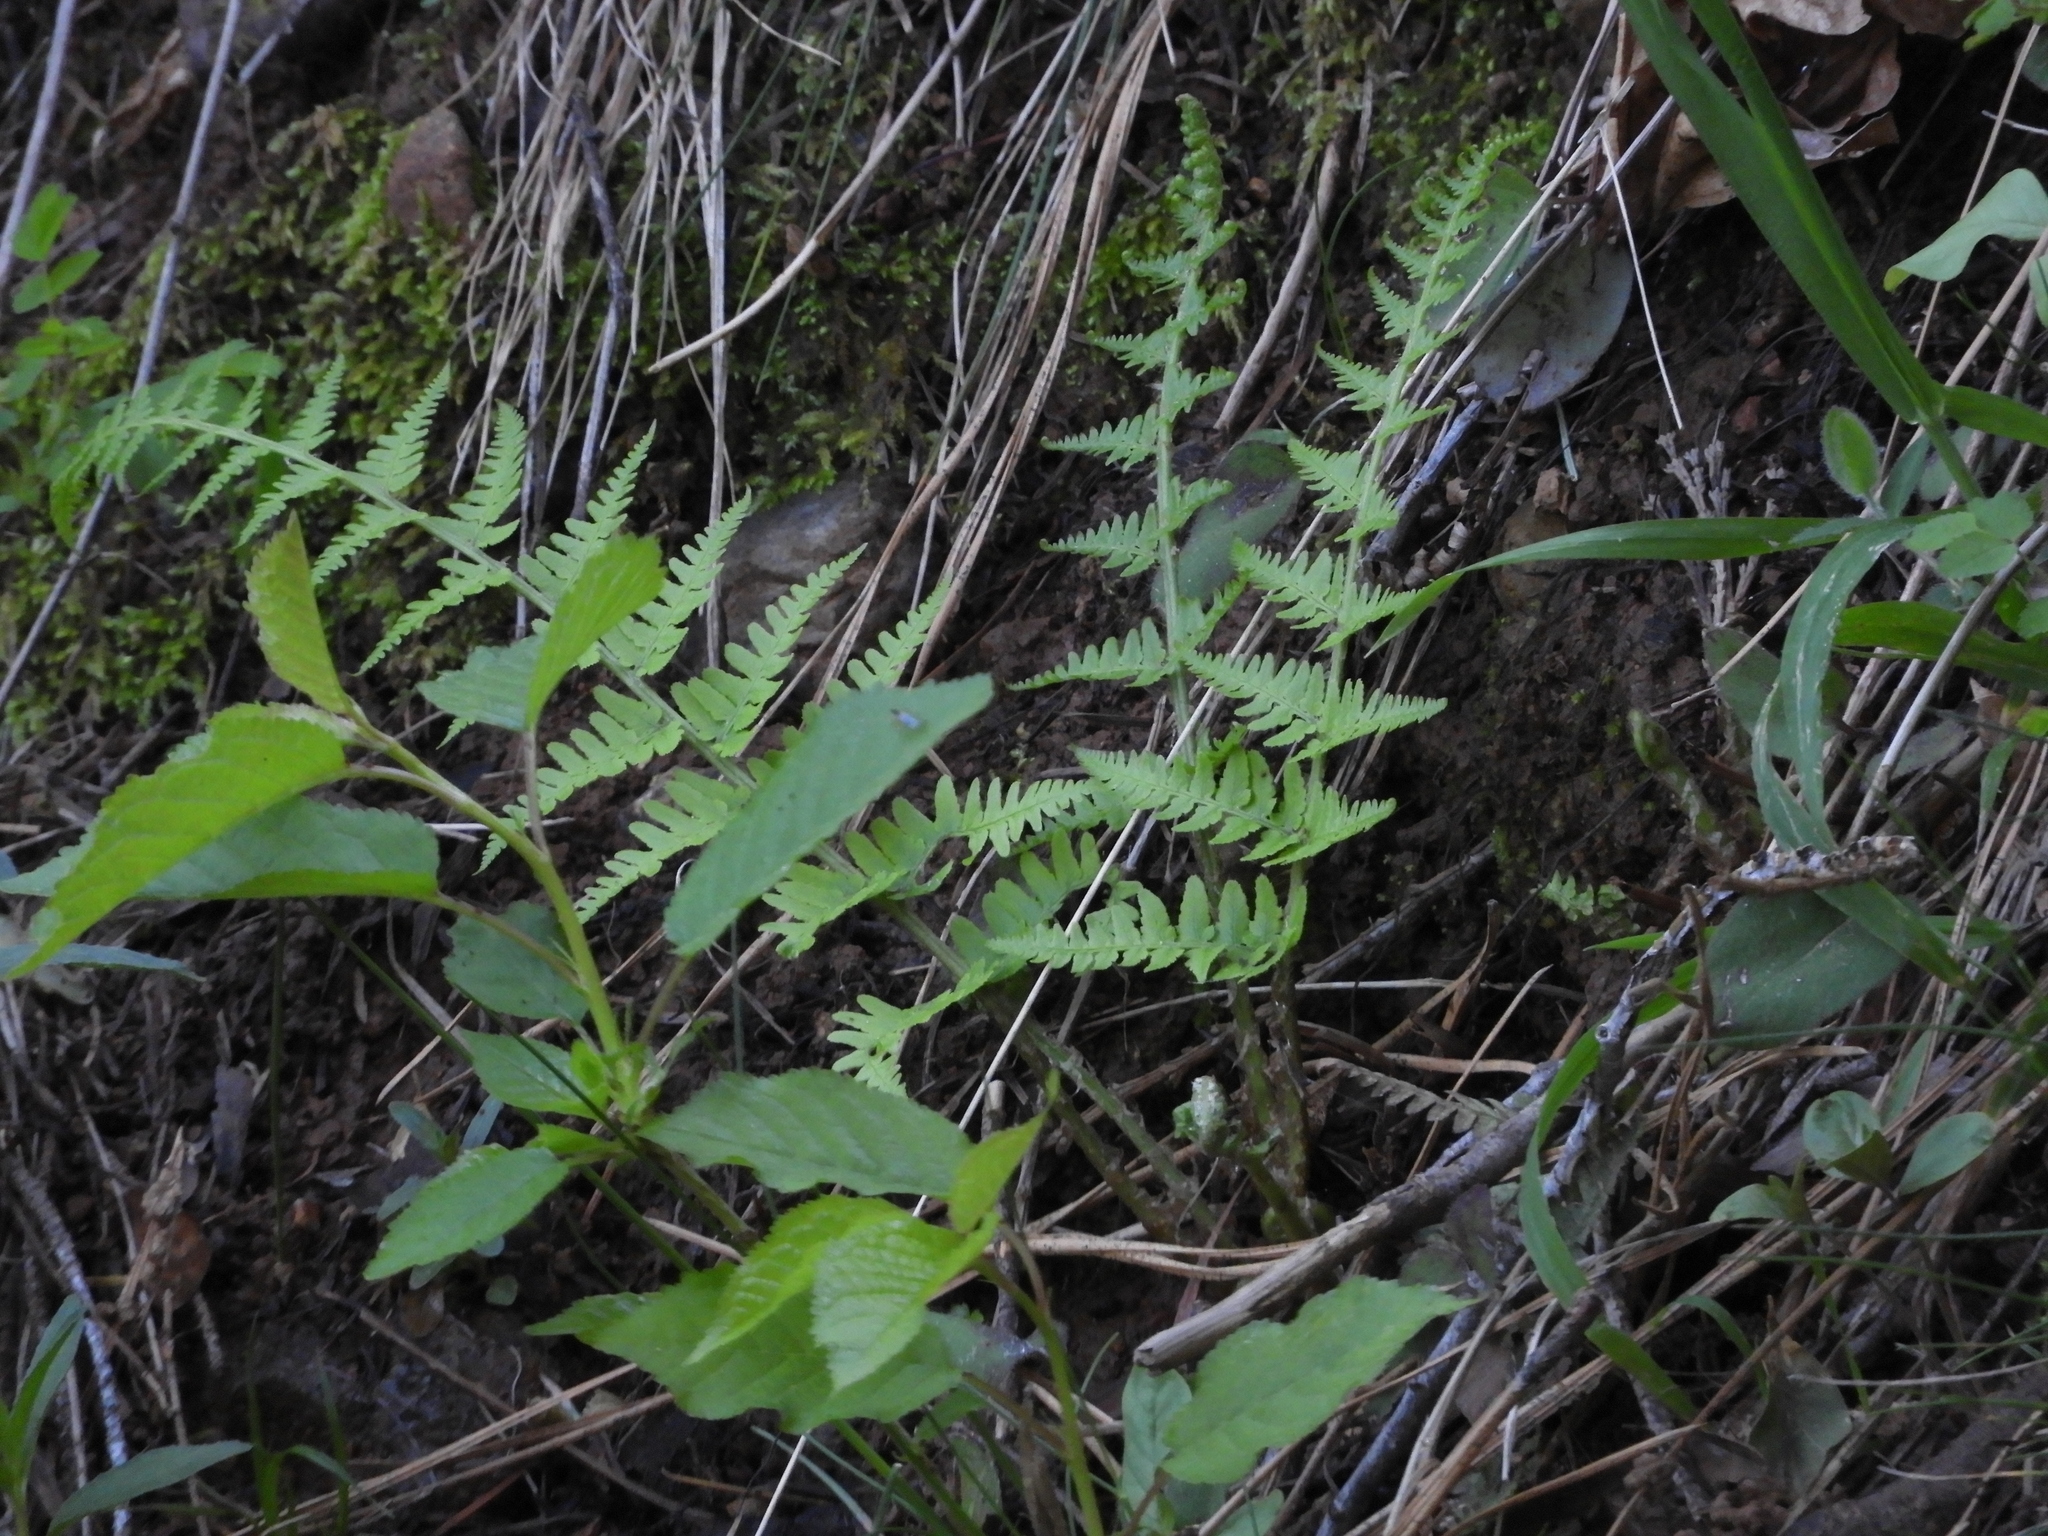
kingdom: Plantae
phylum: Tracheophyta
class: Polypodiopsida
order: Polypodiales
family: Dryopteridaceae
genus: Dryopteris
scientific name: Dryopteris arguta
